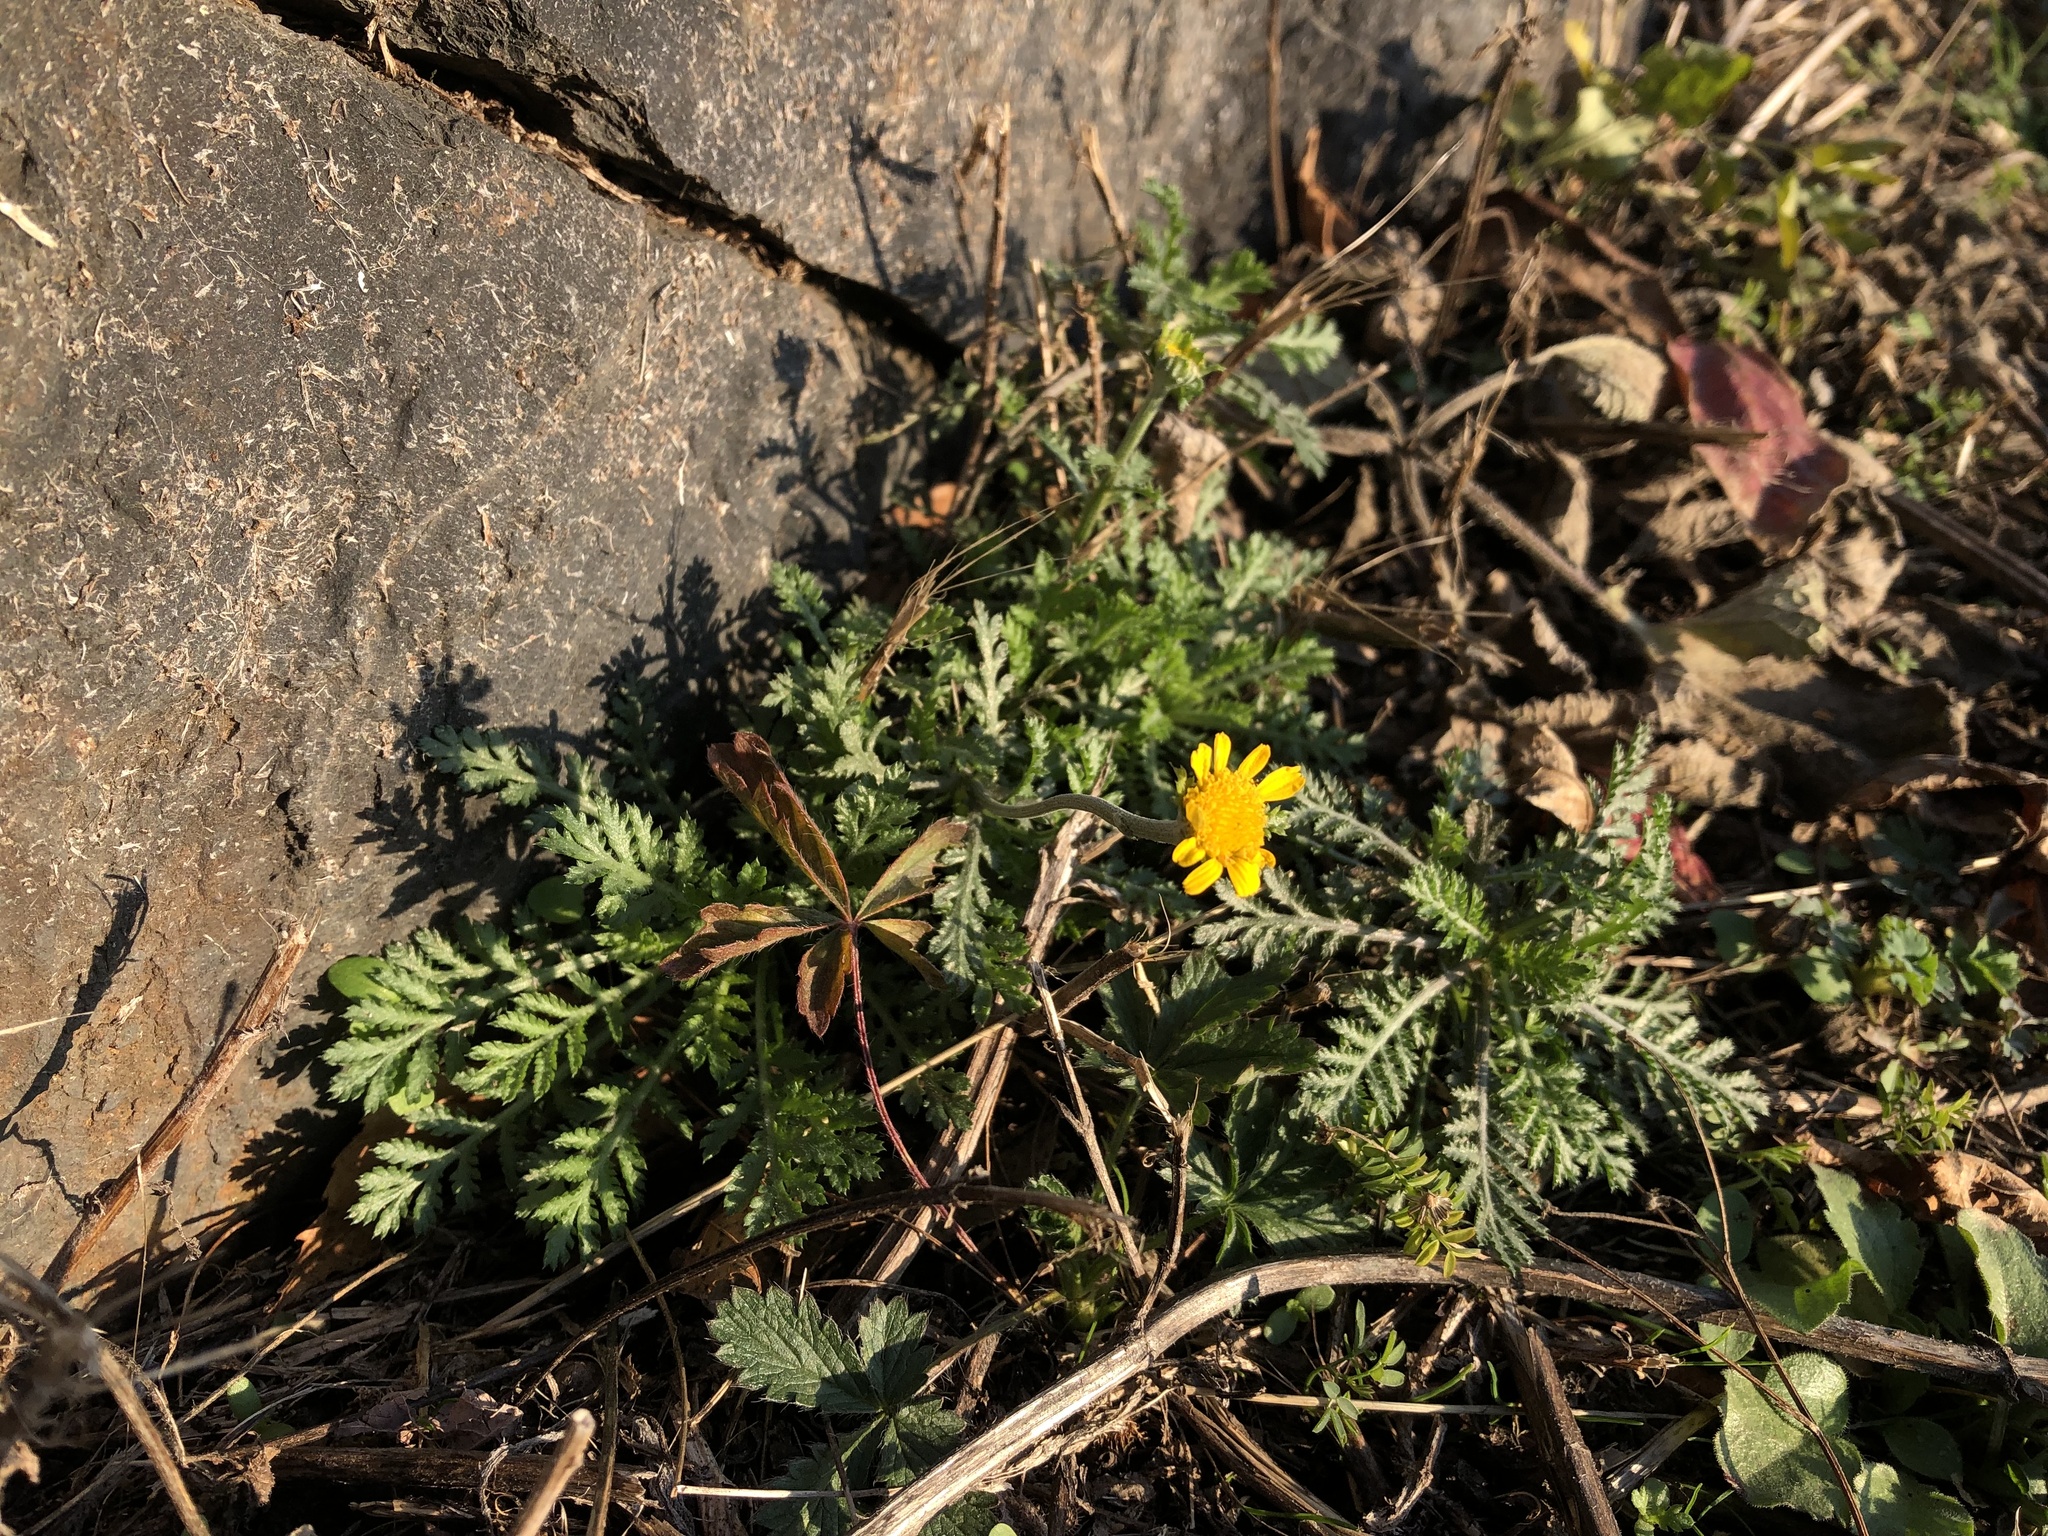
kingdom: Plantae
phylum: Tracheophyta
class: Magnoliopsida
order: Asterales
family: Asteraceae
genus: Cota
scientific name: Cota tinctoria
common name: Golden chamomile
